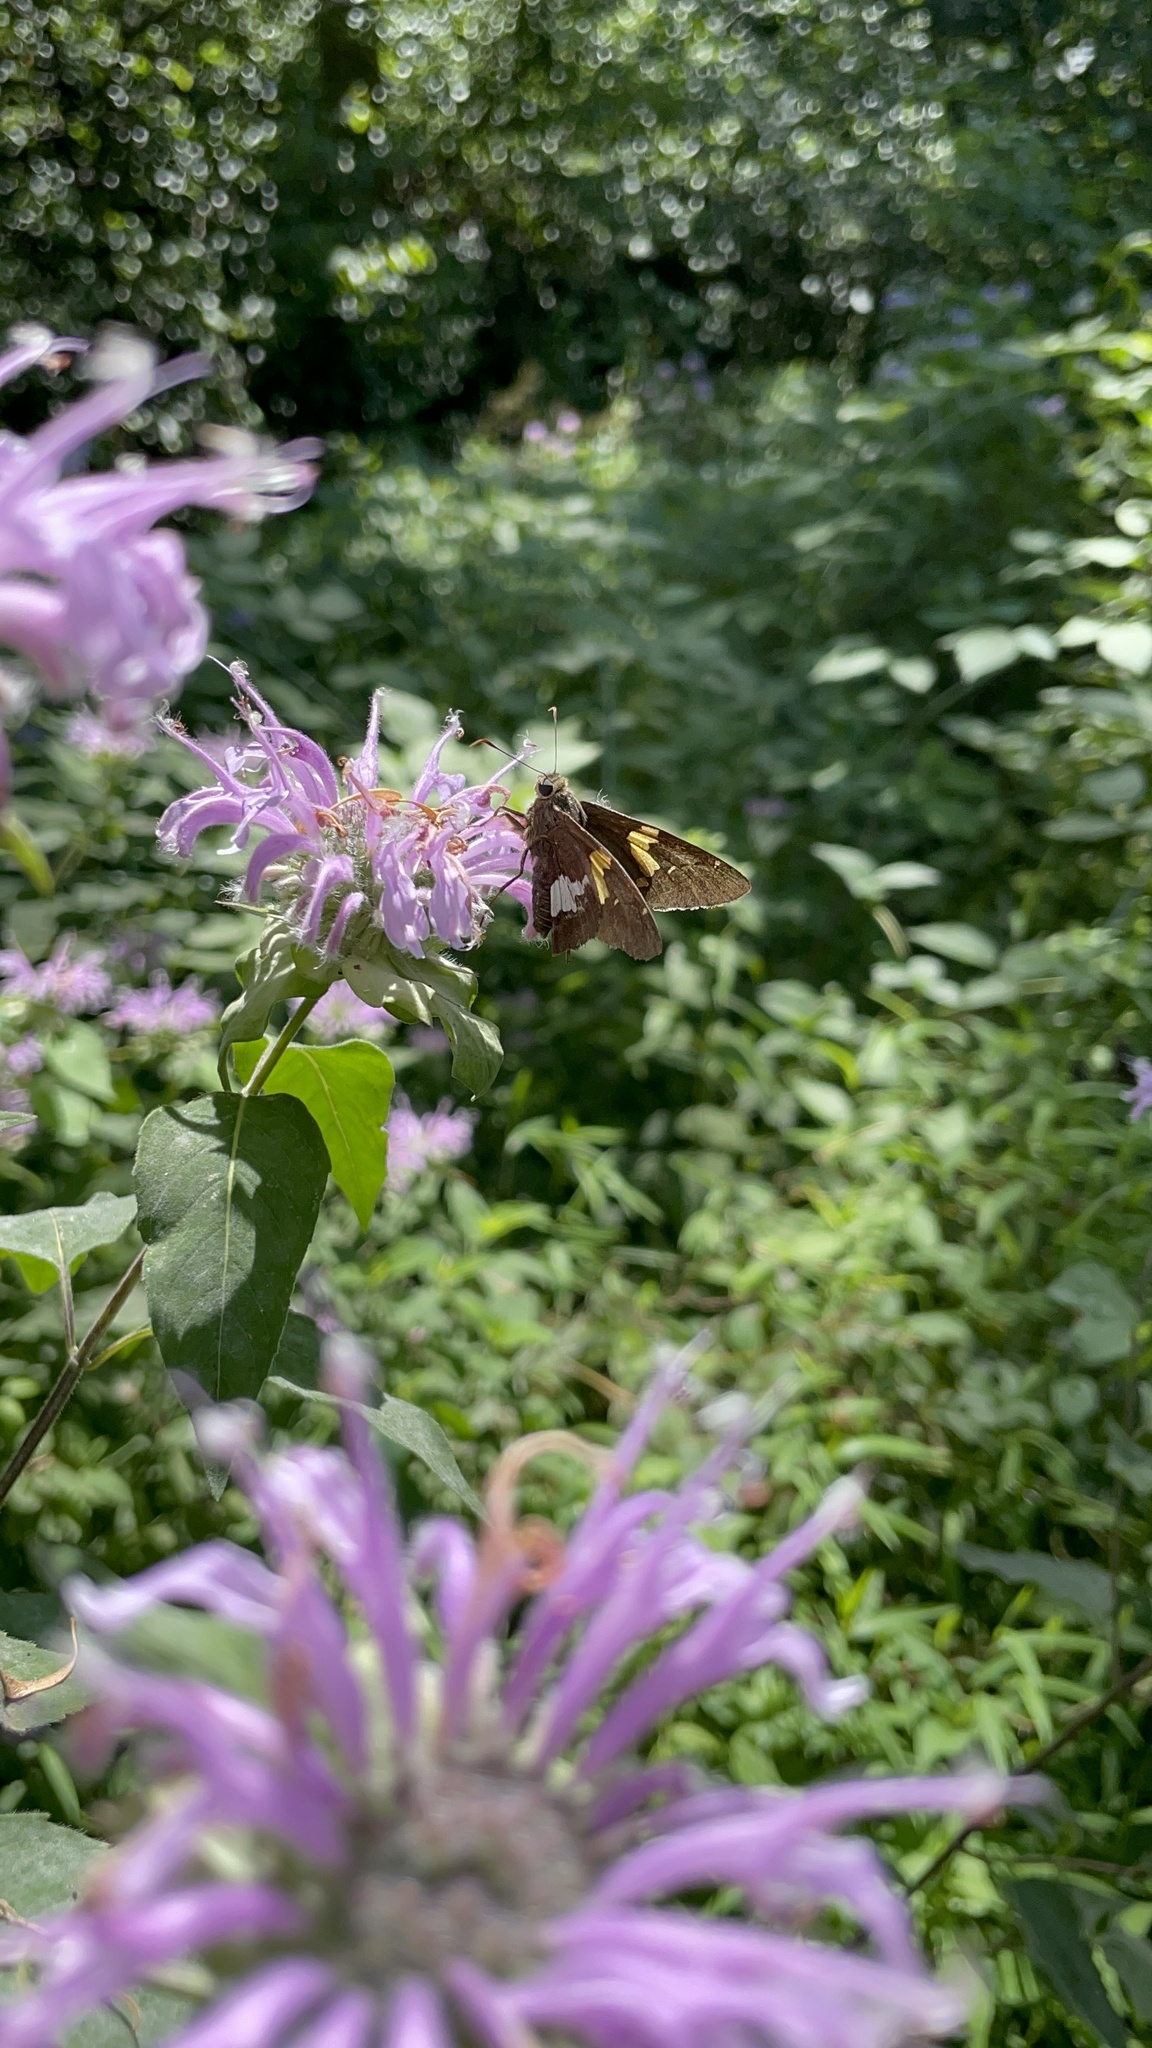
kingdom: Animalia
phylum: Arthropoda
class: Insecta
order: Lepidoptera
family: Hesperiidae
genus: Epargyreus
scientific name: Epargyreus clarus
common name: Silver-spotted skipper
